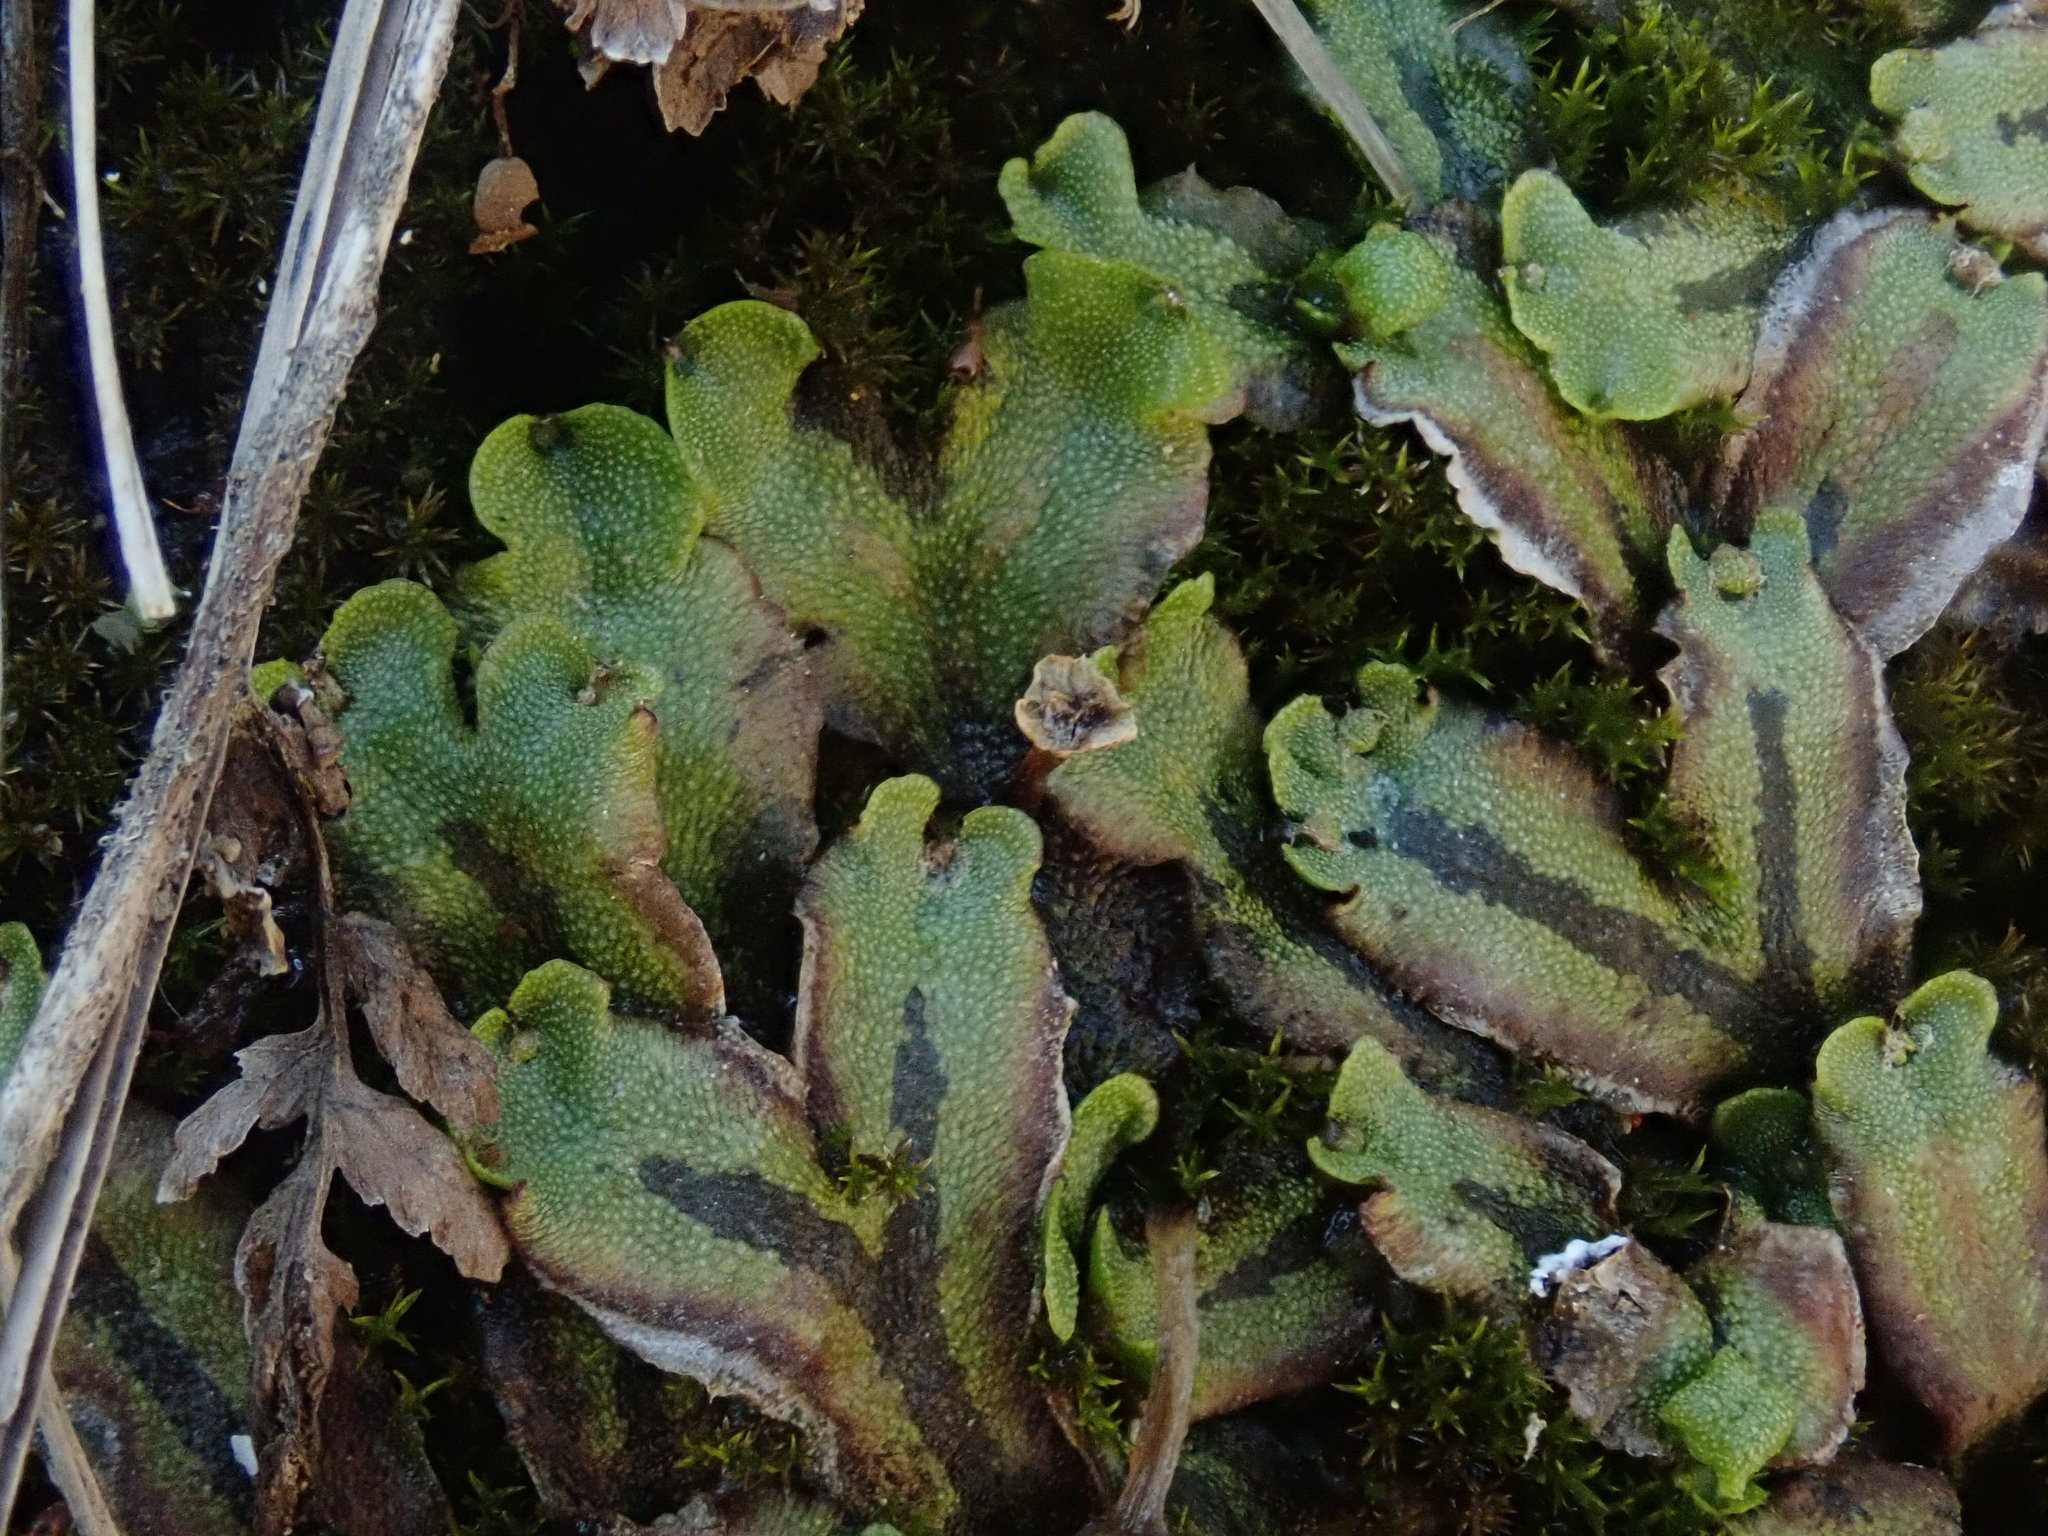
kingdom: Plantae
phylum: Marchantiophyta
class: Marchantiopsida
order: Marchantiales
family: Marchantiaceae
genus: Marchantia
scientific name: Marchantia quadrata
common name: Narrow mushroom-headed liverwort
